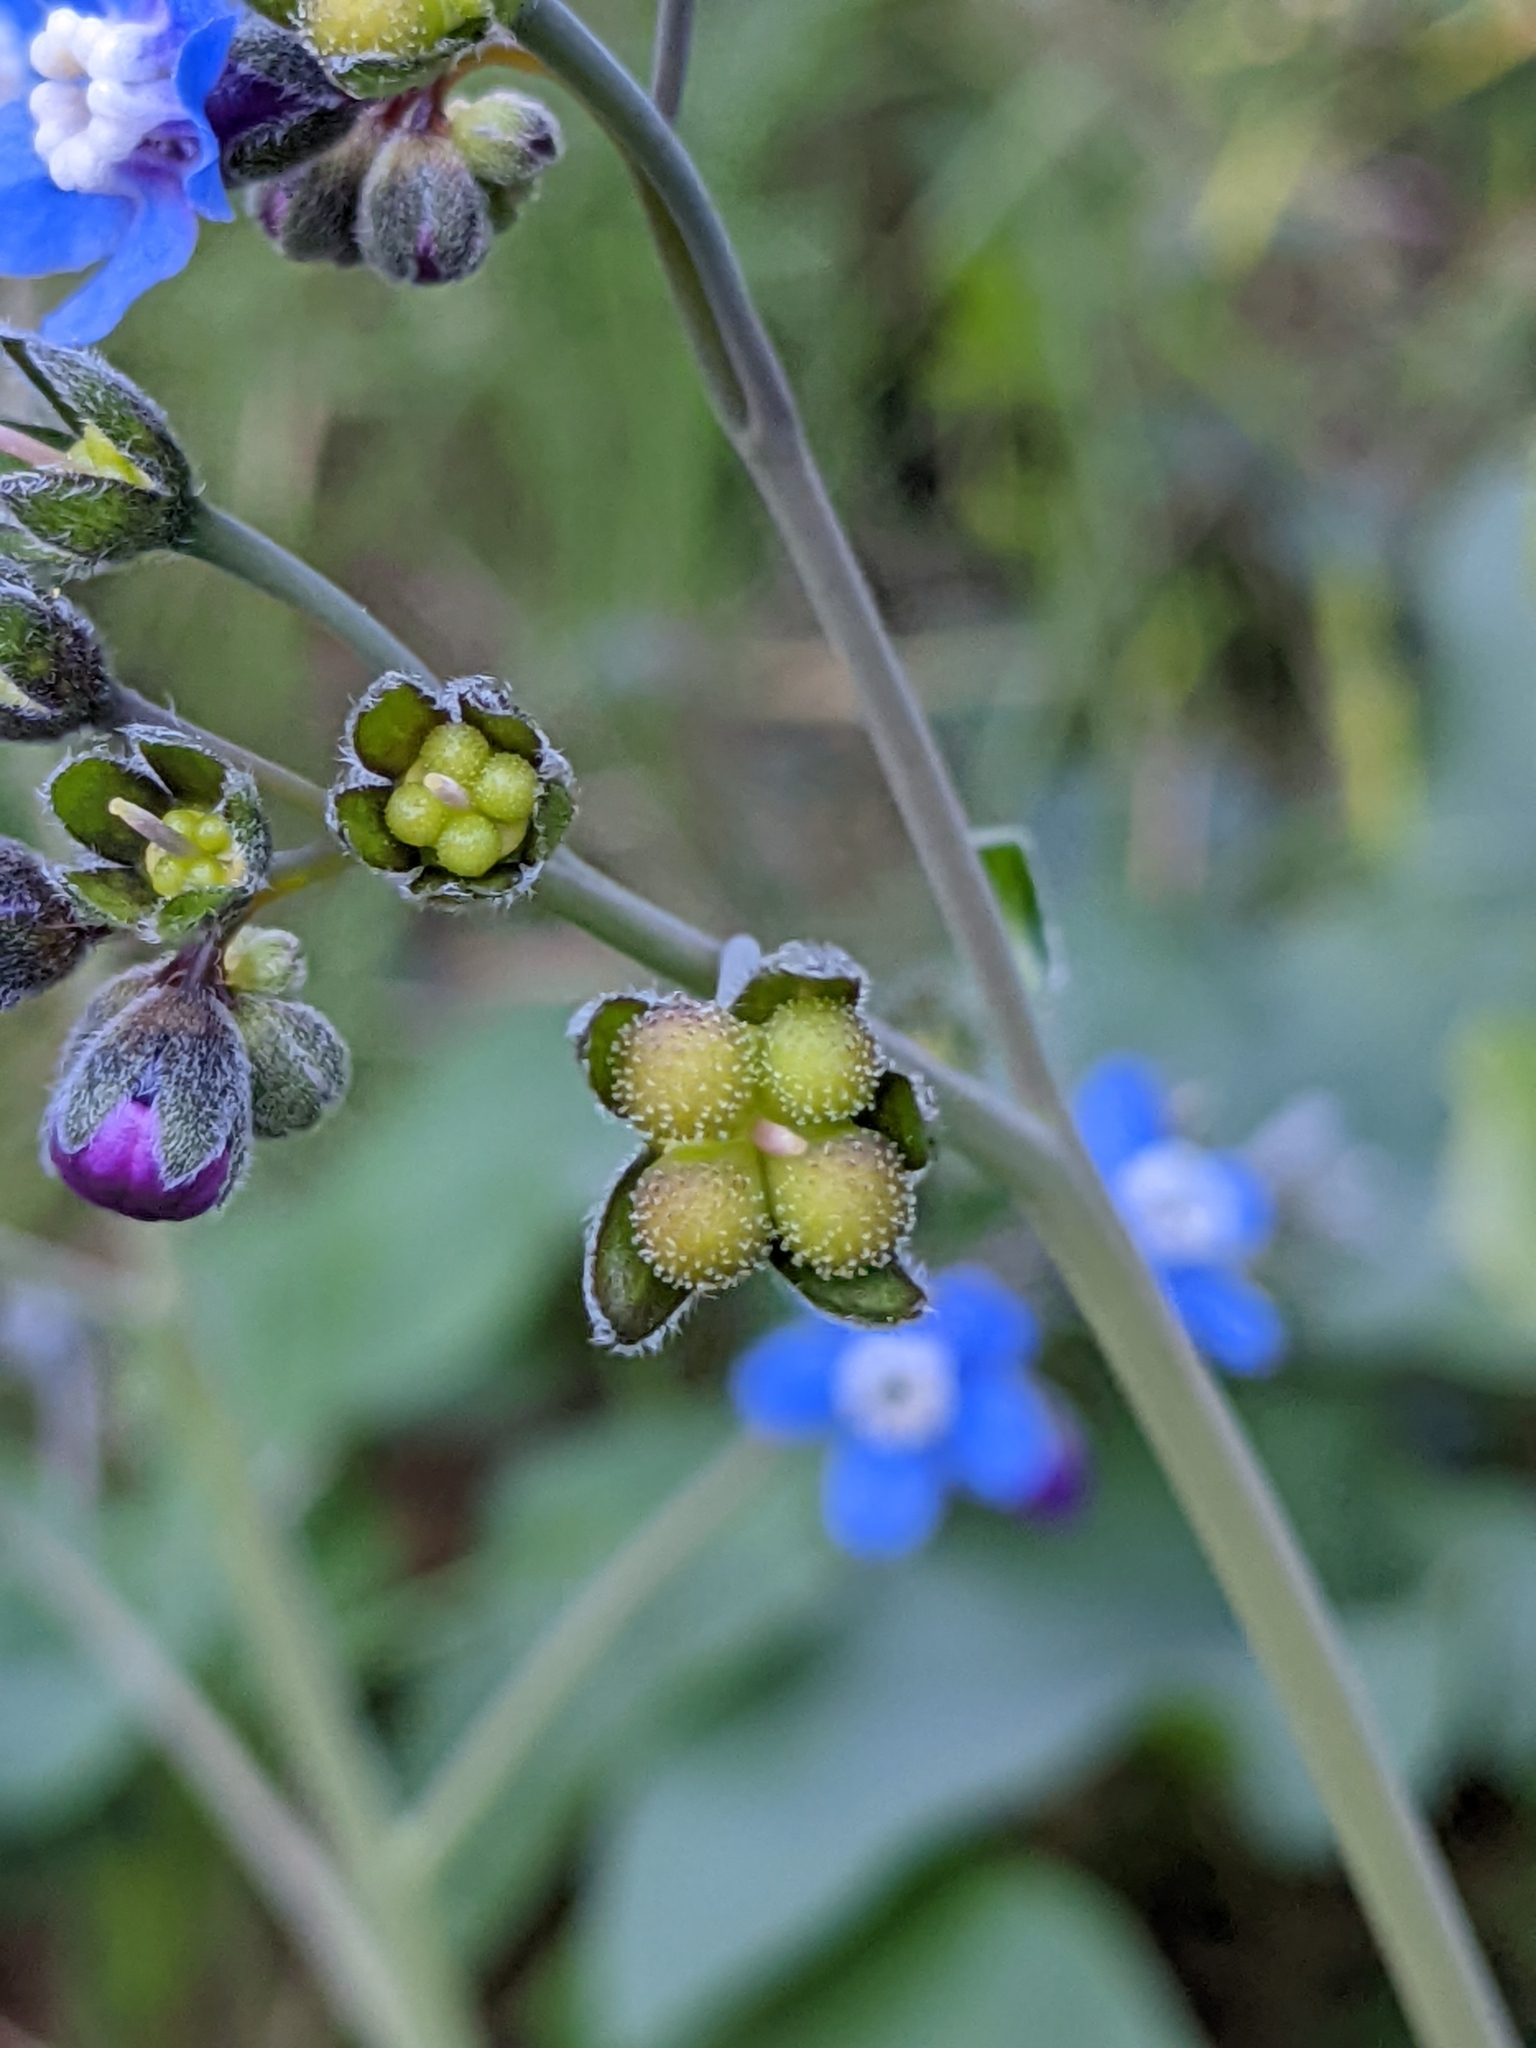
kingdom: Plantae
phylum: Tracheophyta
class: Magnoliopsida
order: Boraginales
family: Boraginaceae
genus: Adelinia
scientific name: Adelinia grande
